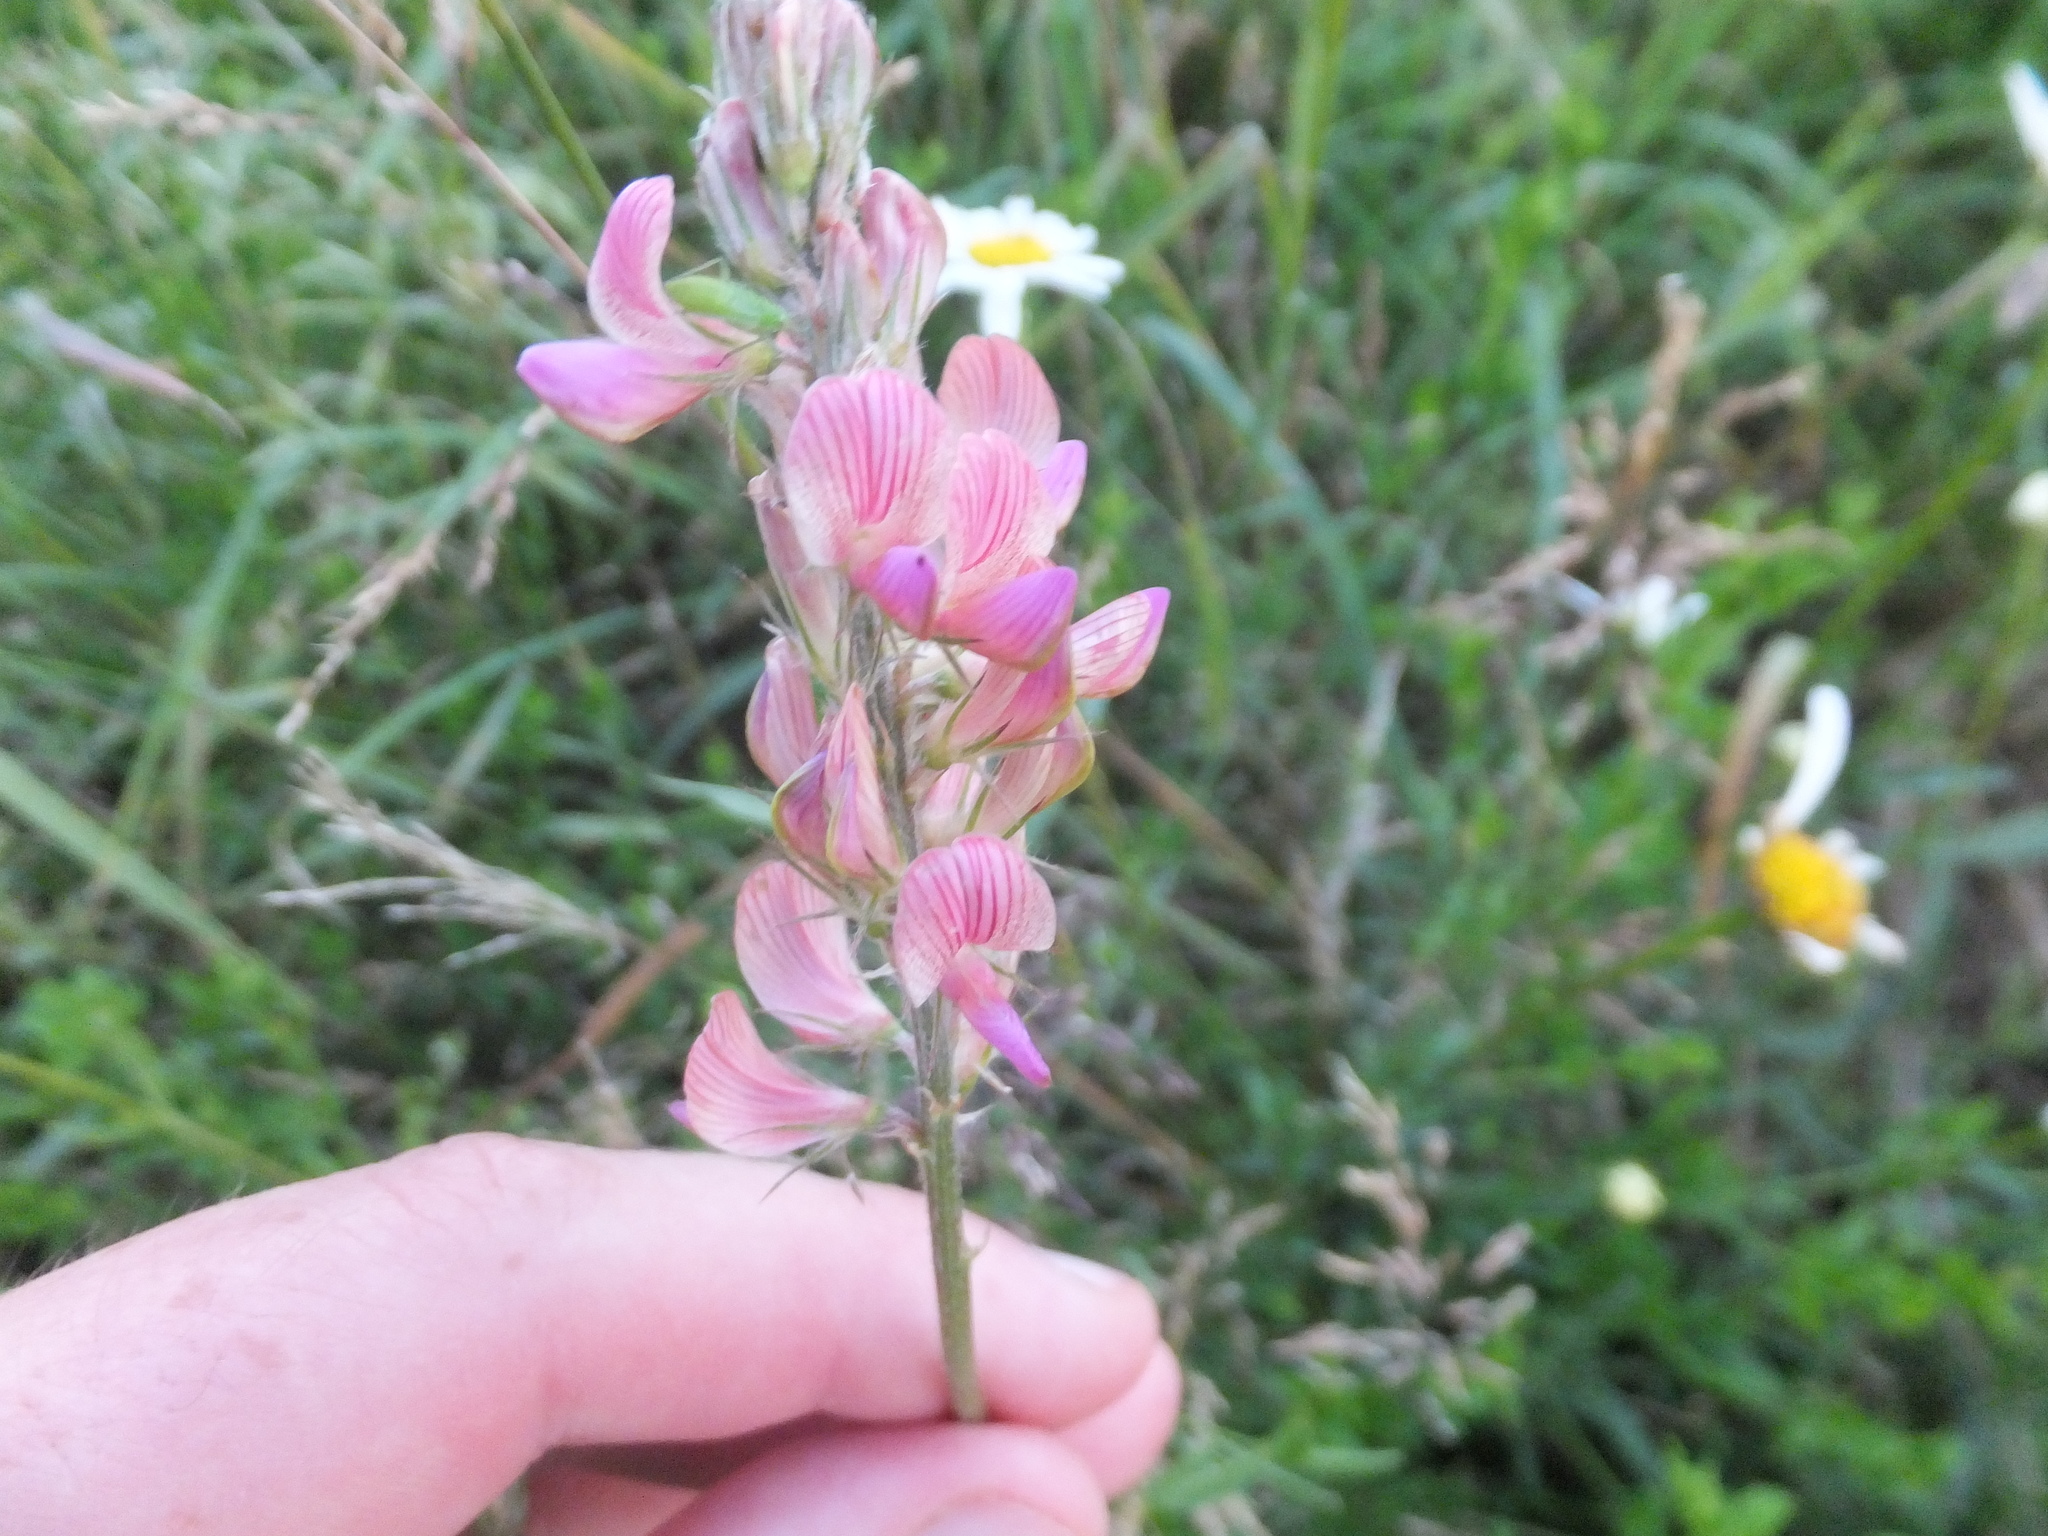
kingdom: Plantae
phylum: Tracheophyta
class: Magnoliopsida
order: Fabales
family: Fabaceae
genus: Onobrychis
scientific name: Onobrychis viciifolia
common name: Sainfoin
